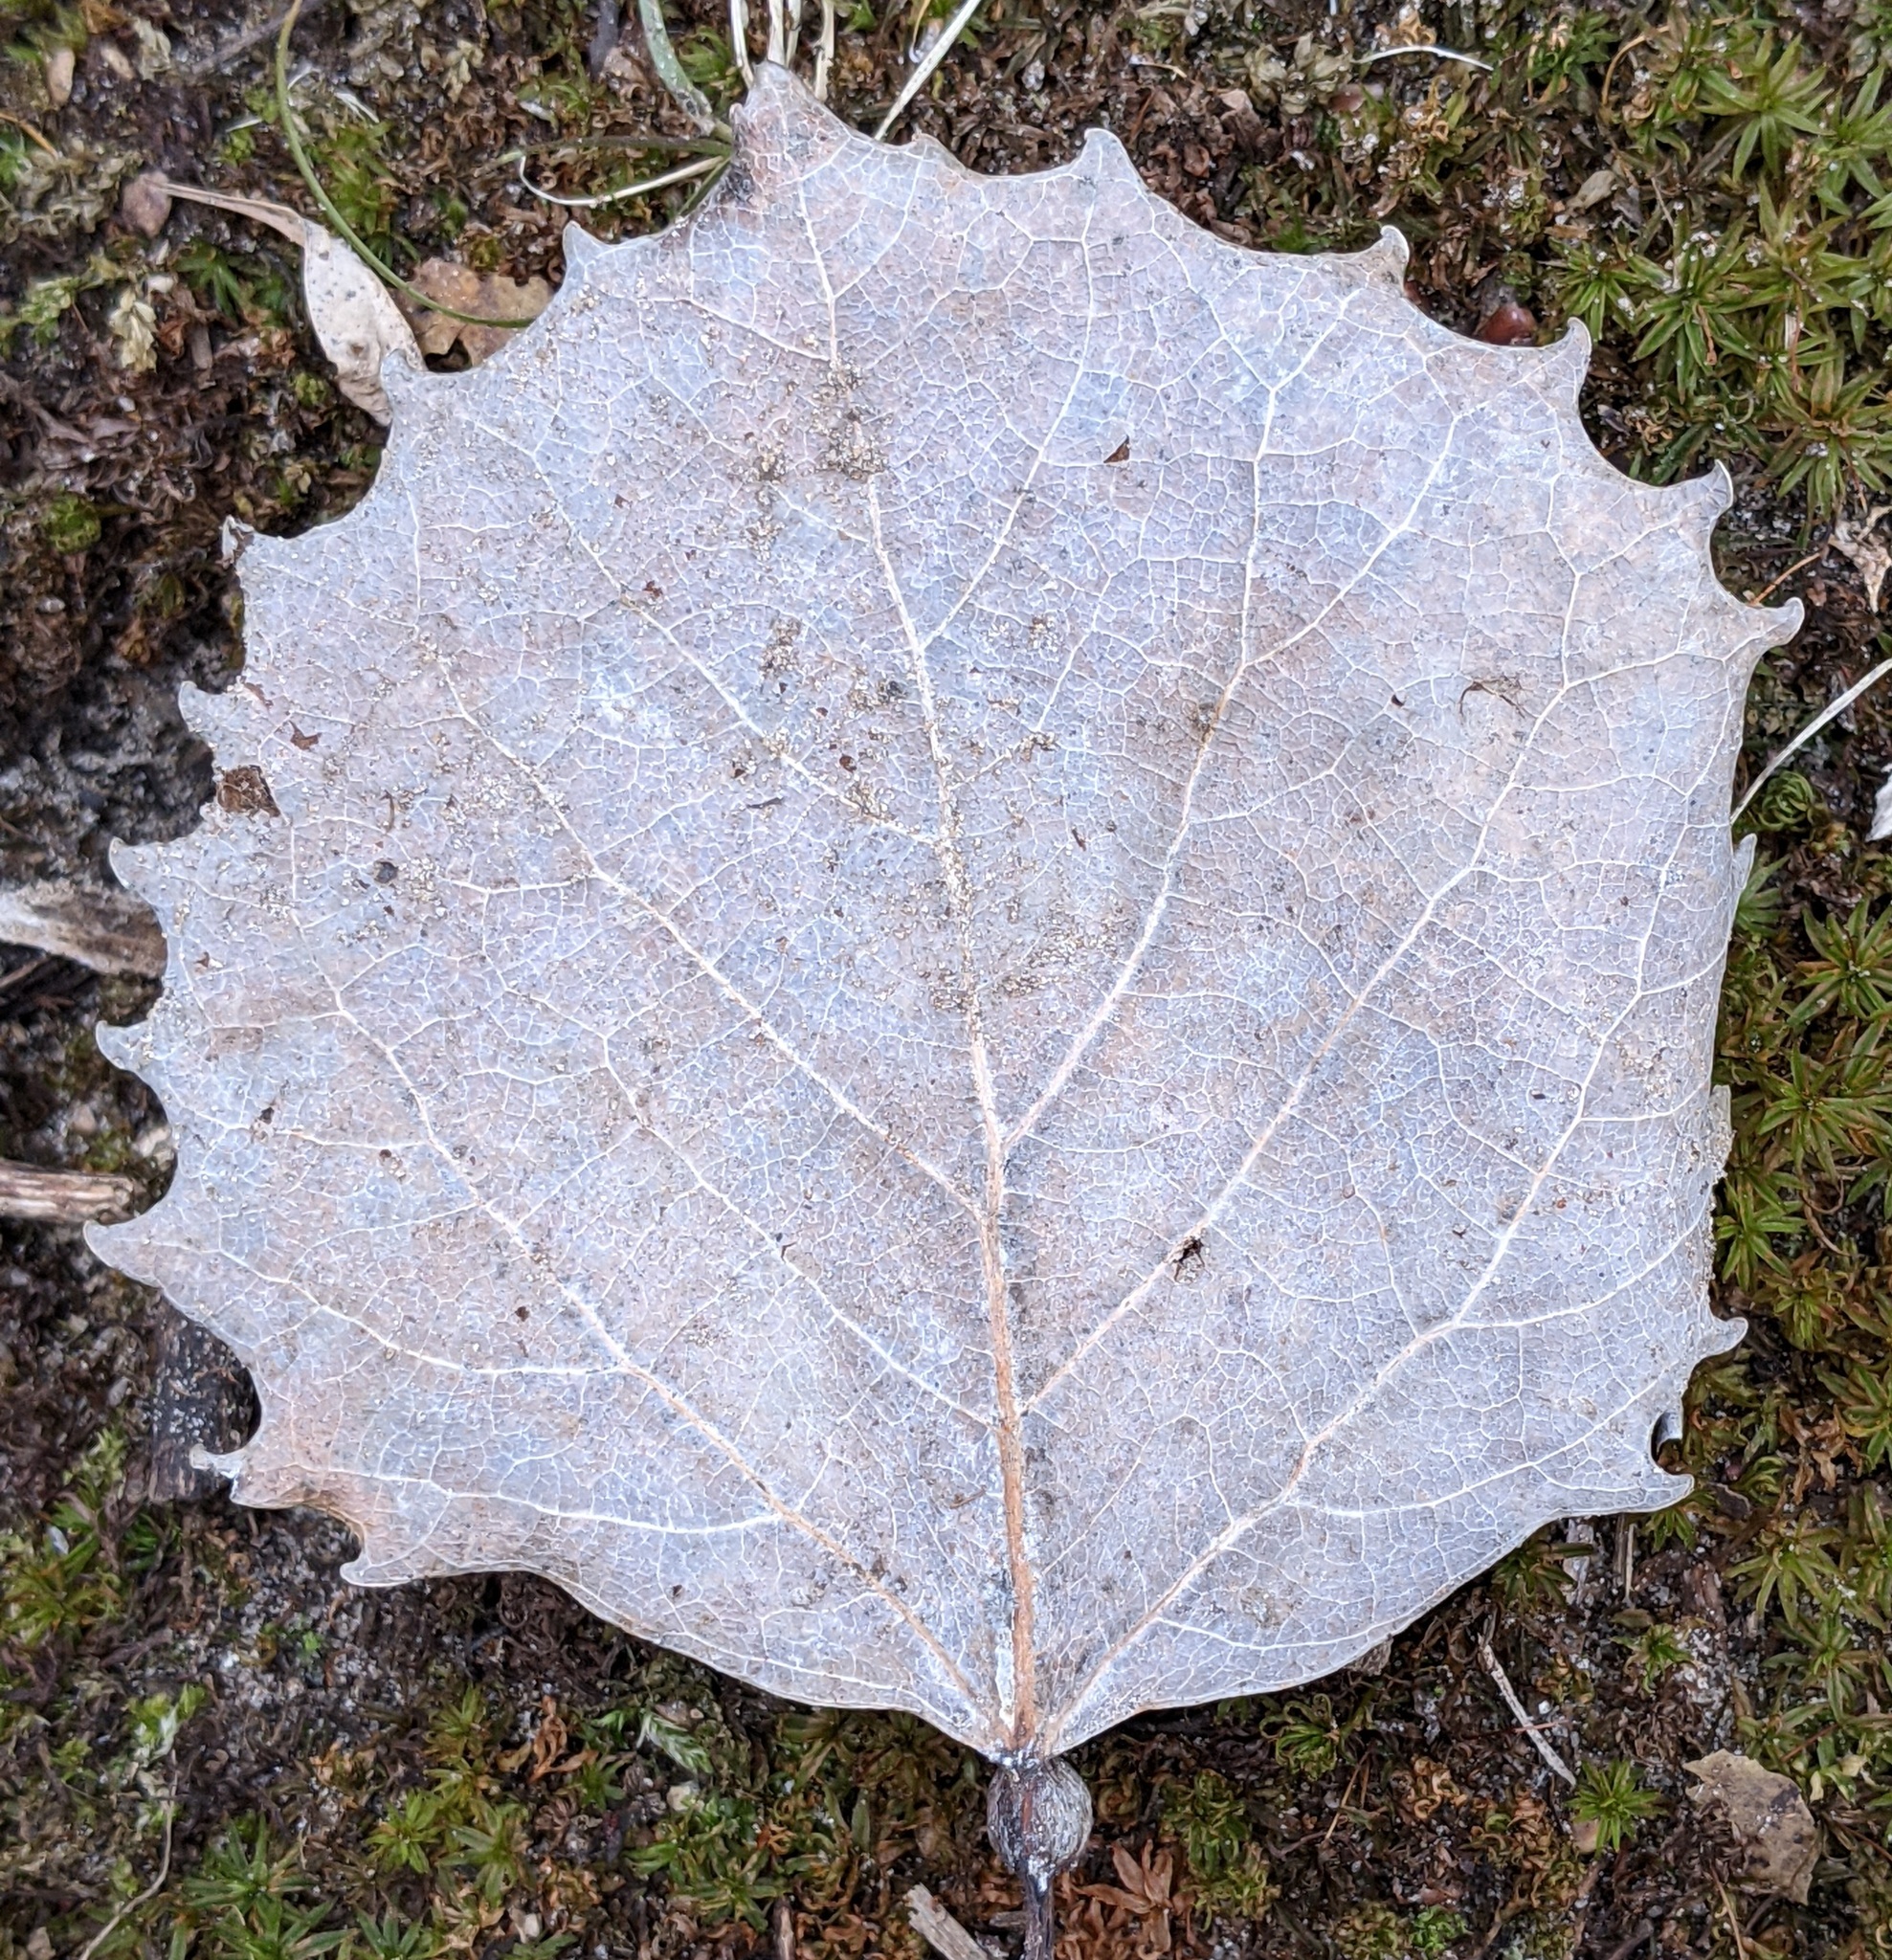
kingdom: Plantae
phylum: Tracheophyta
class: Magnoliopsida
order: Malpighiales
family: Salicaceae
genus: Populus
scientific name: Populus grandidentata
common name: Bigtooth aspen
